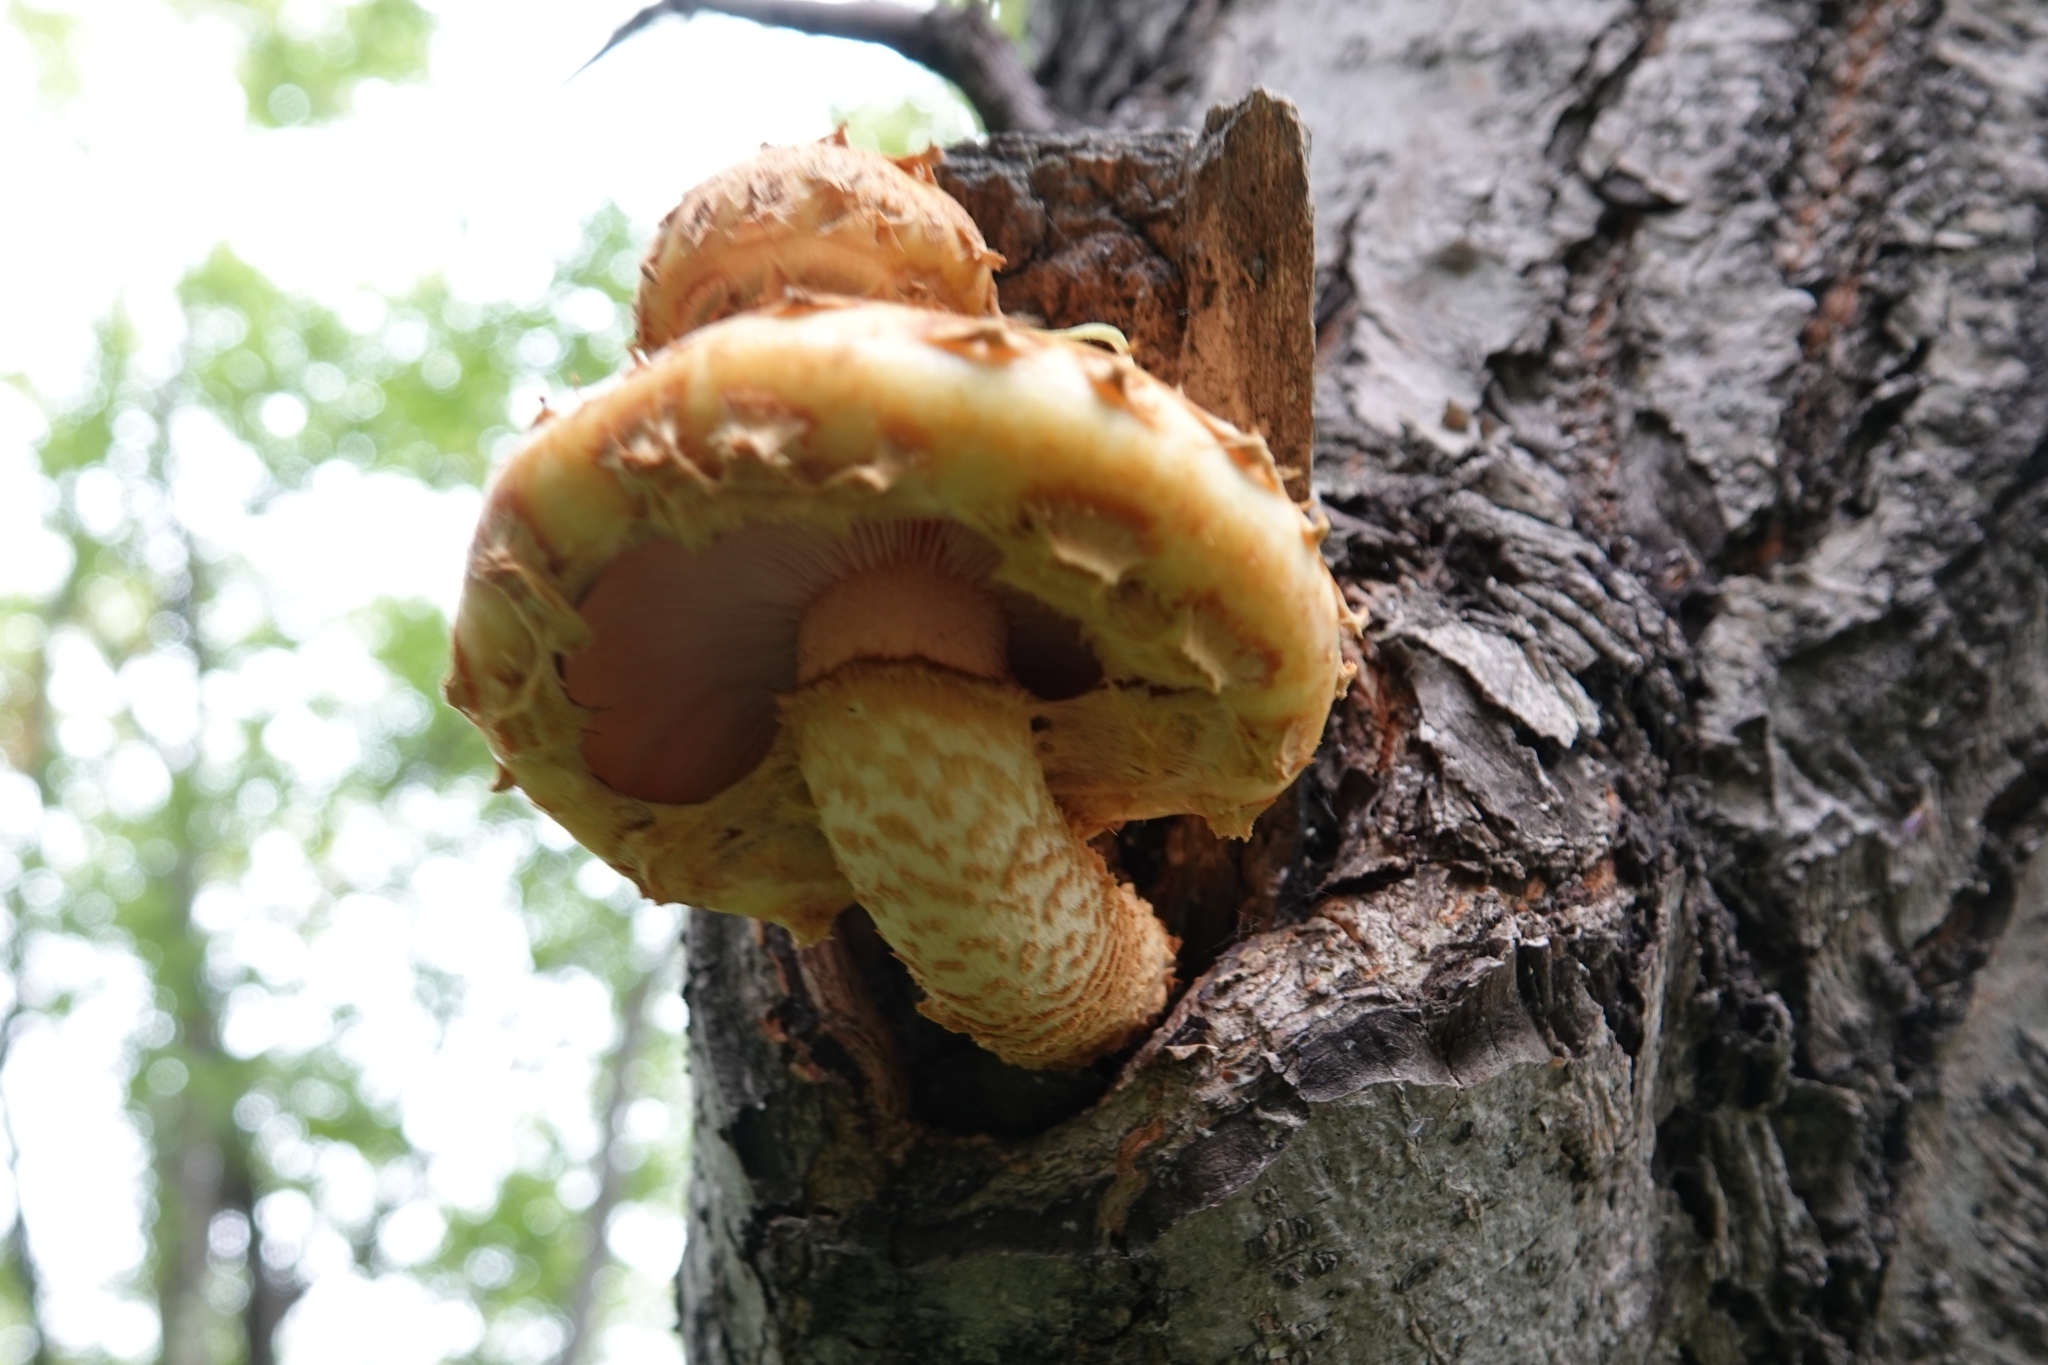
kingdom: Fungi
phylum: Basidiomycota
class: Agaricomycetes
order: Agaricales
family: Strophariaceae
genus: Pholiota
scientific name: Pholiota aurivella
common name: Golden scalycap
